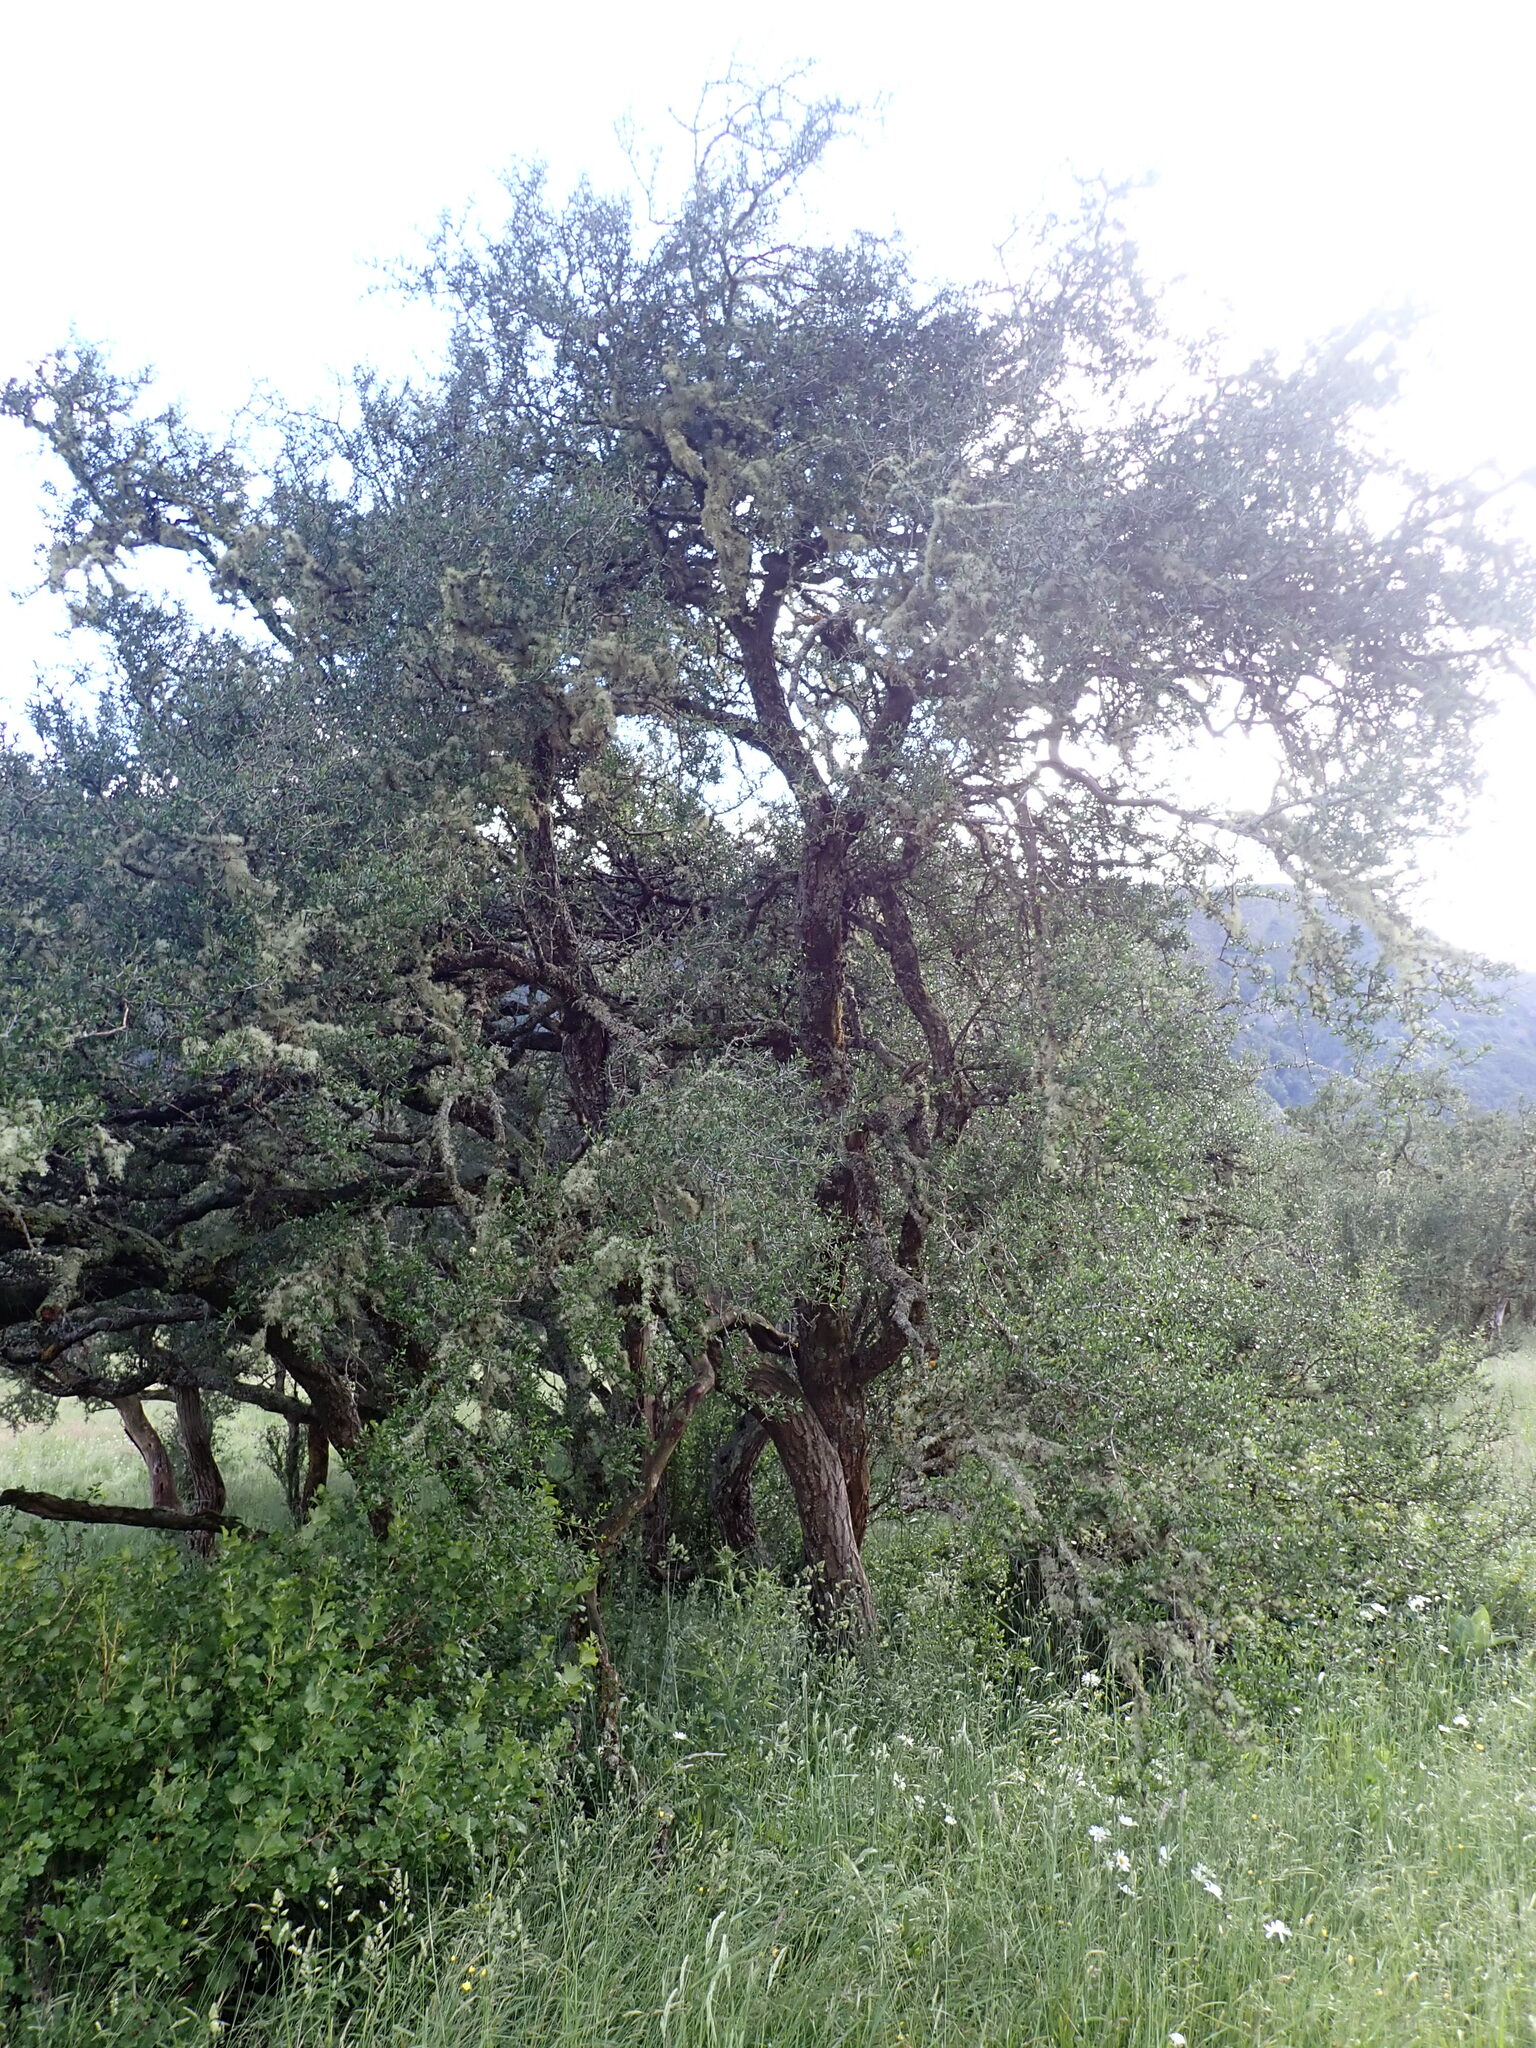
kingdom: Plantae
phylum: Tracheophyta
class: Magnoliopsida
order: Rosales
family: Rhamnaceae
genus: Discaria
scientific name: Discaria toumatou
